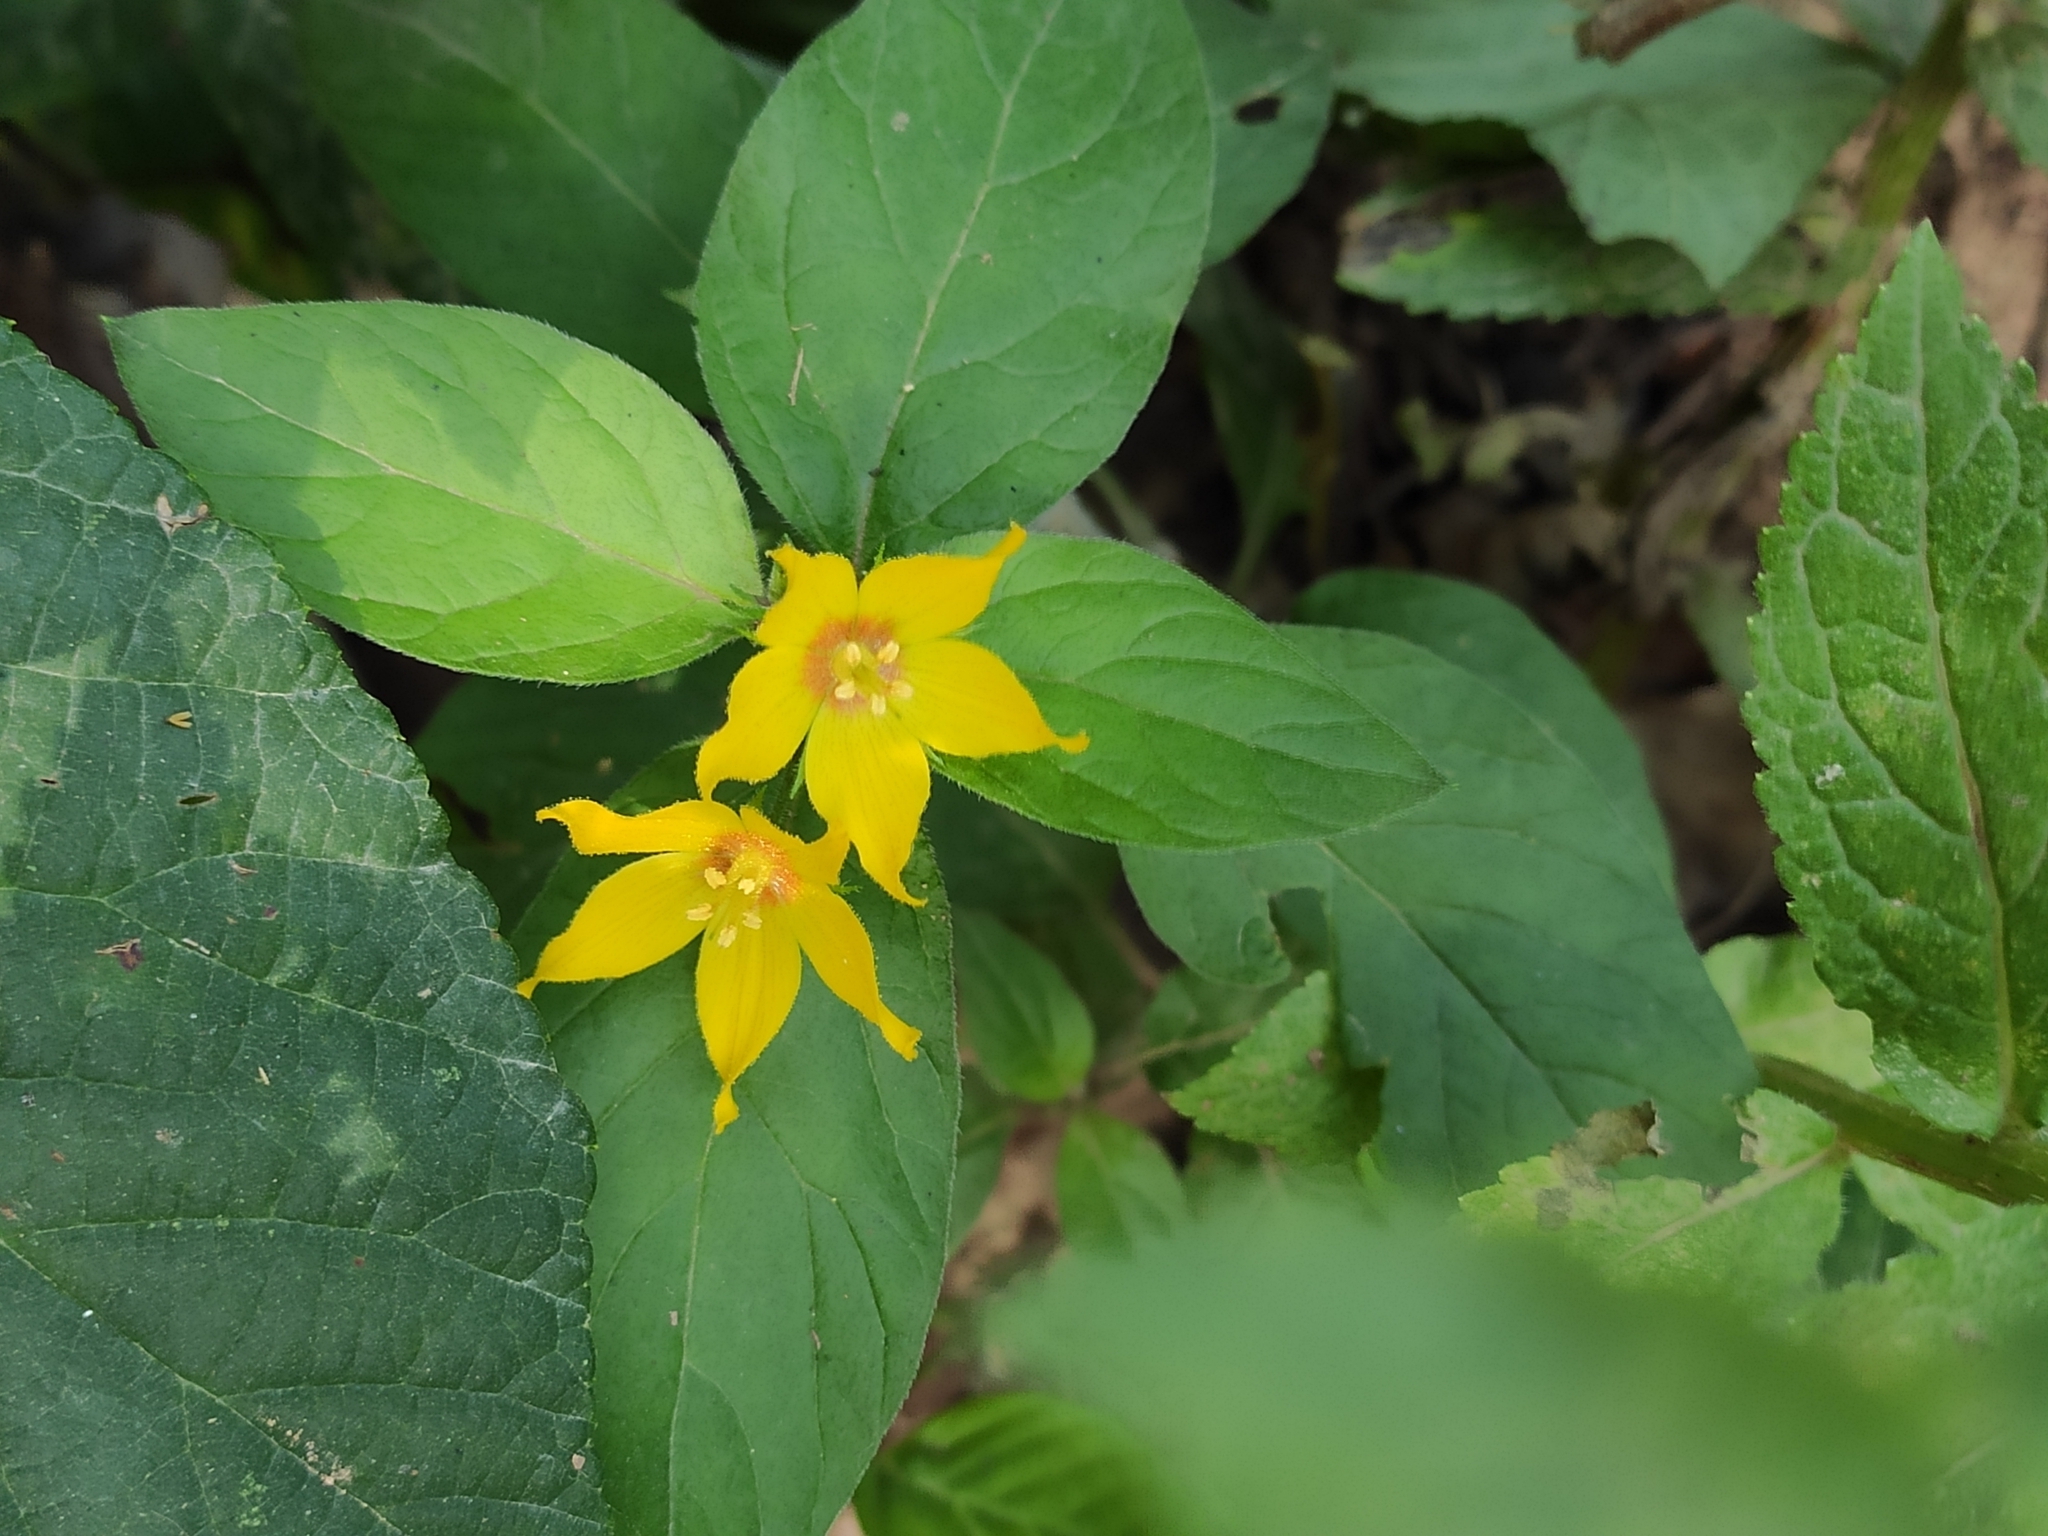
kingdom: Plantae
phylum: Tracheophyta
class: Magnoliopsida
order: Ericales
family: Primulaceae
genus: Lysimachia
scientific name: Lysimachia verticillaris
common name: Yellow loosestrife
